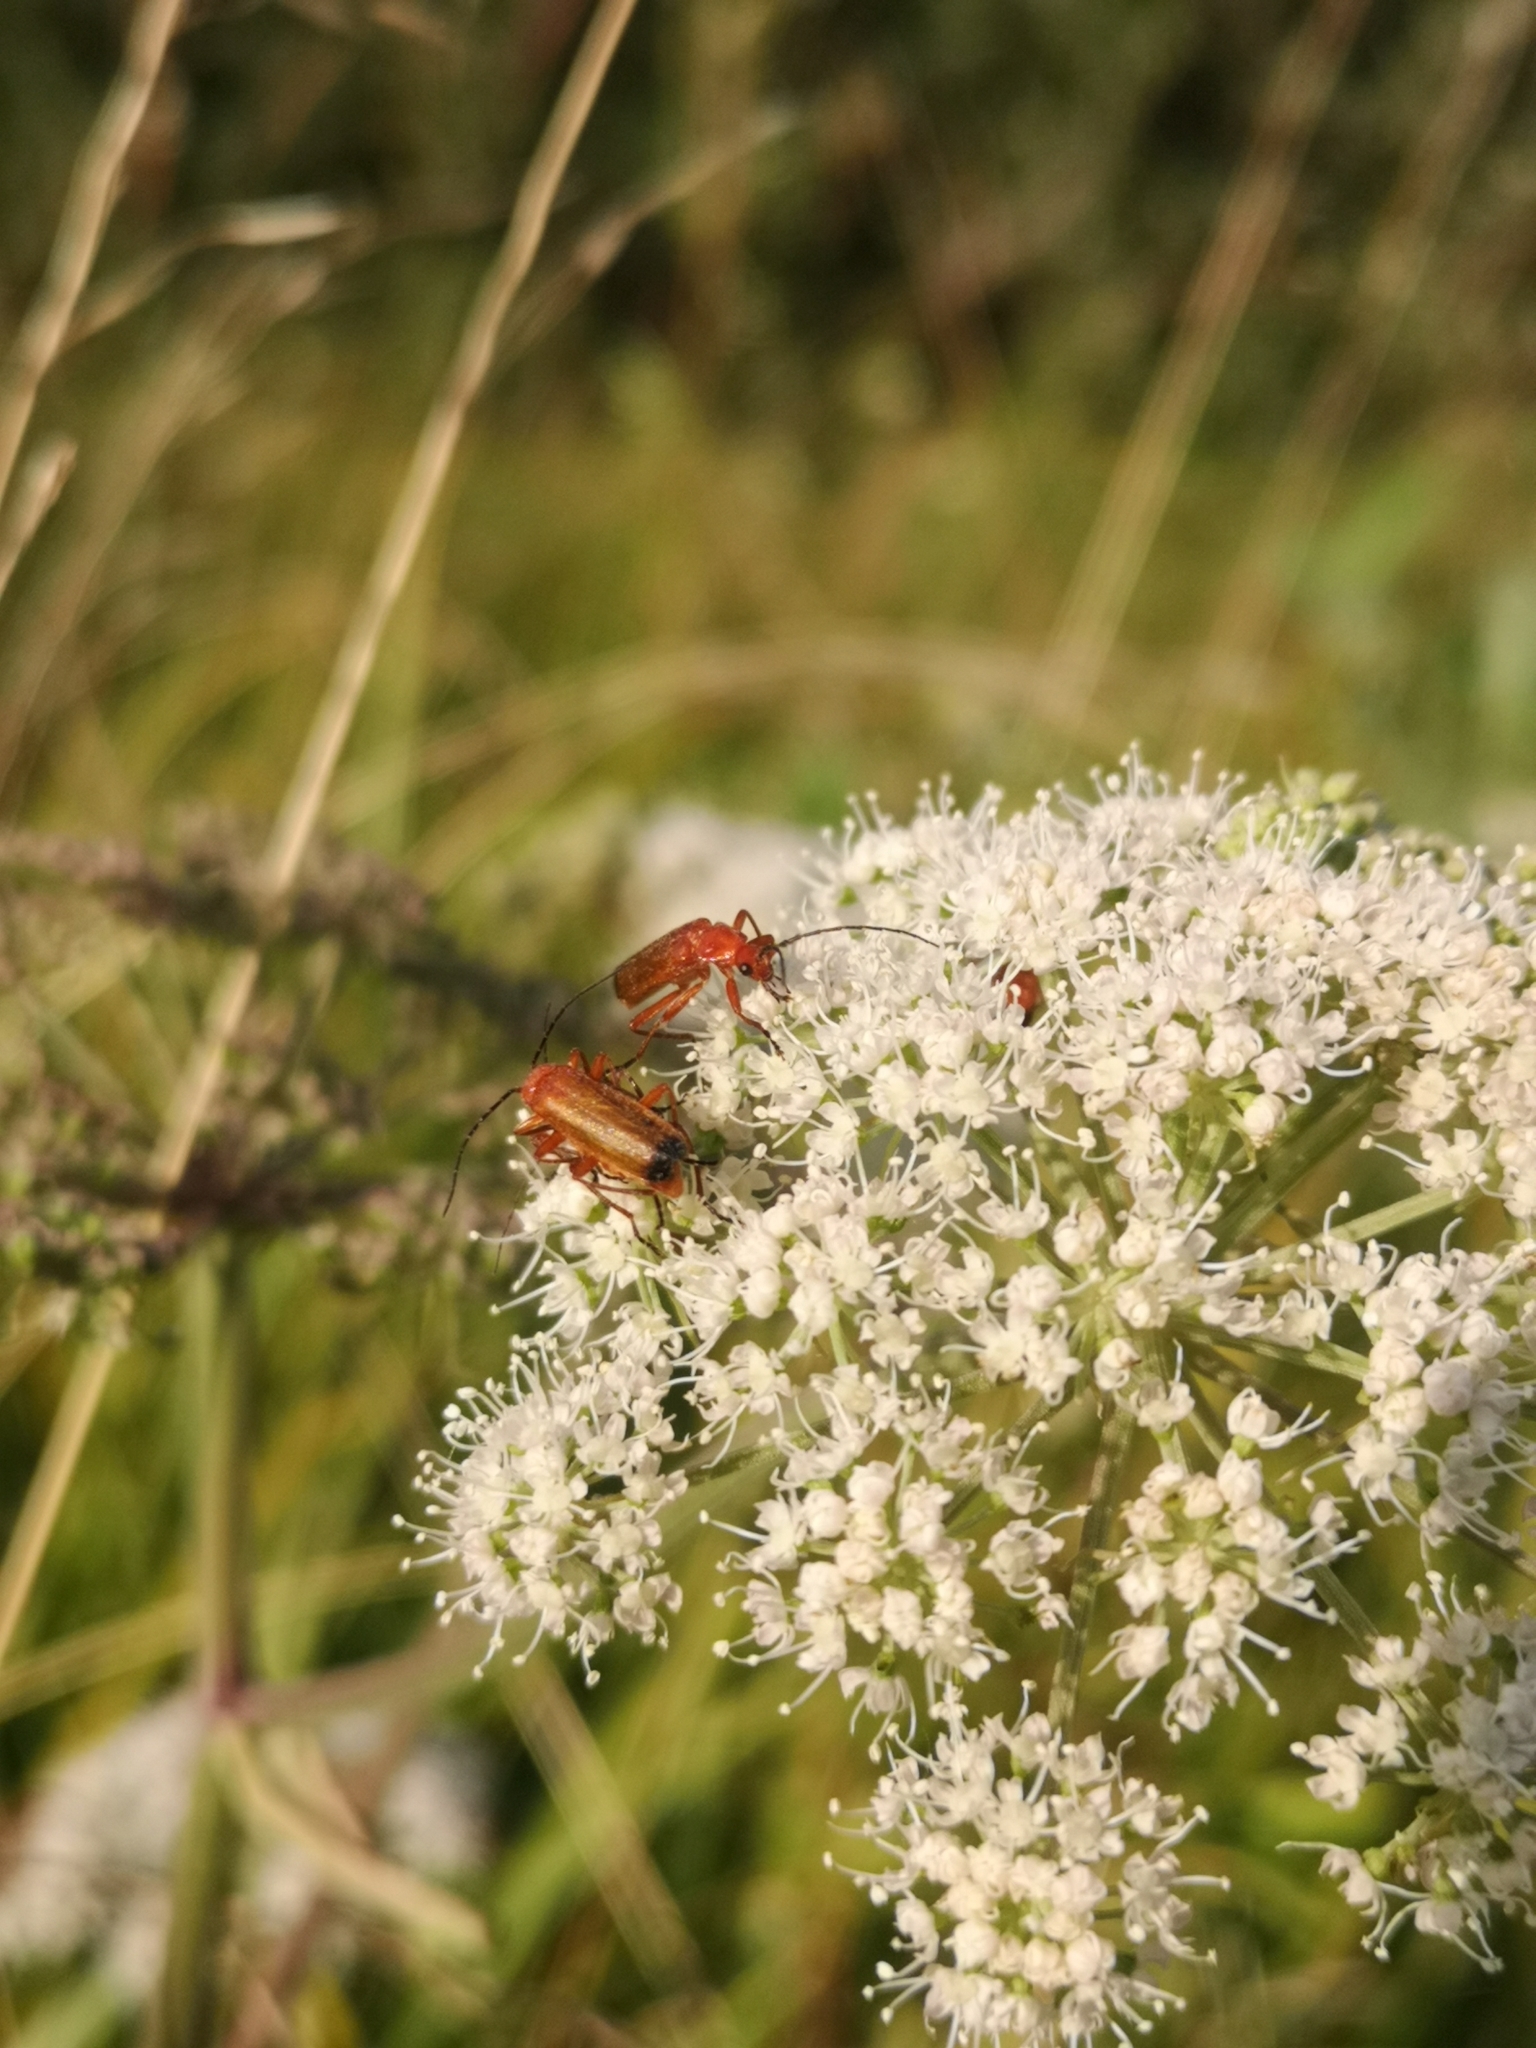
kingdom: Animalia
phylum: Arthropoda
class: Insecta
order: Coleoptera
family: Cantharidae
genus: Rhagonycha
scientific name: Rhagonycha fulva
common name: Common red soldier beetle
